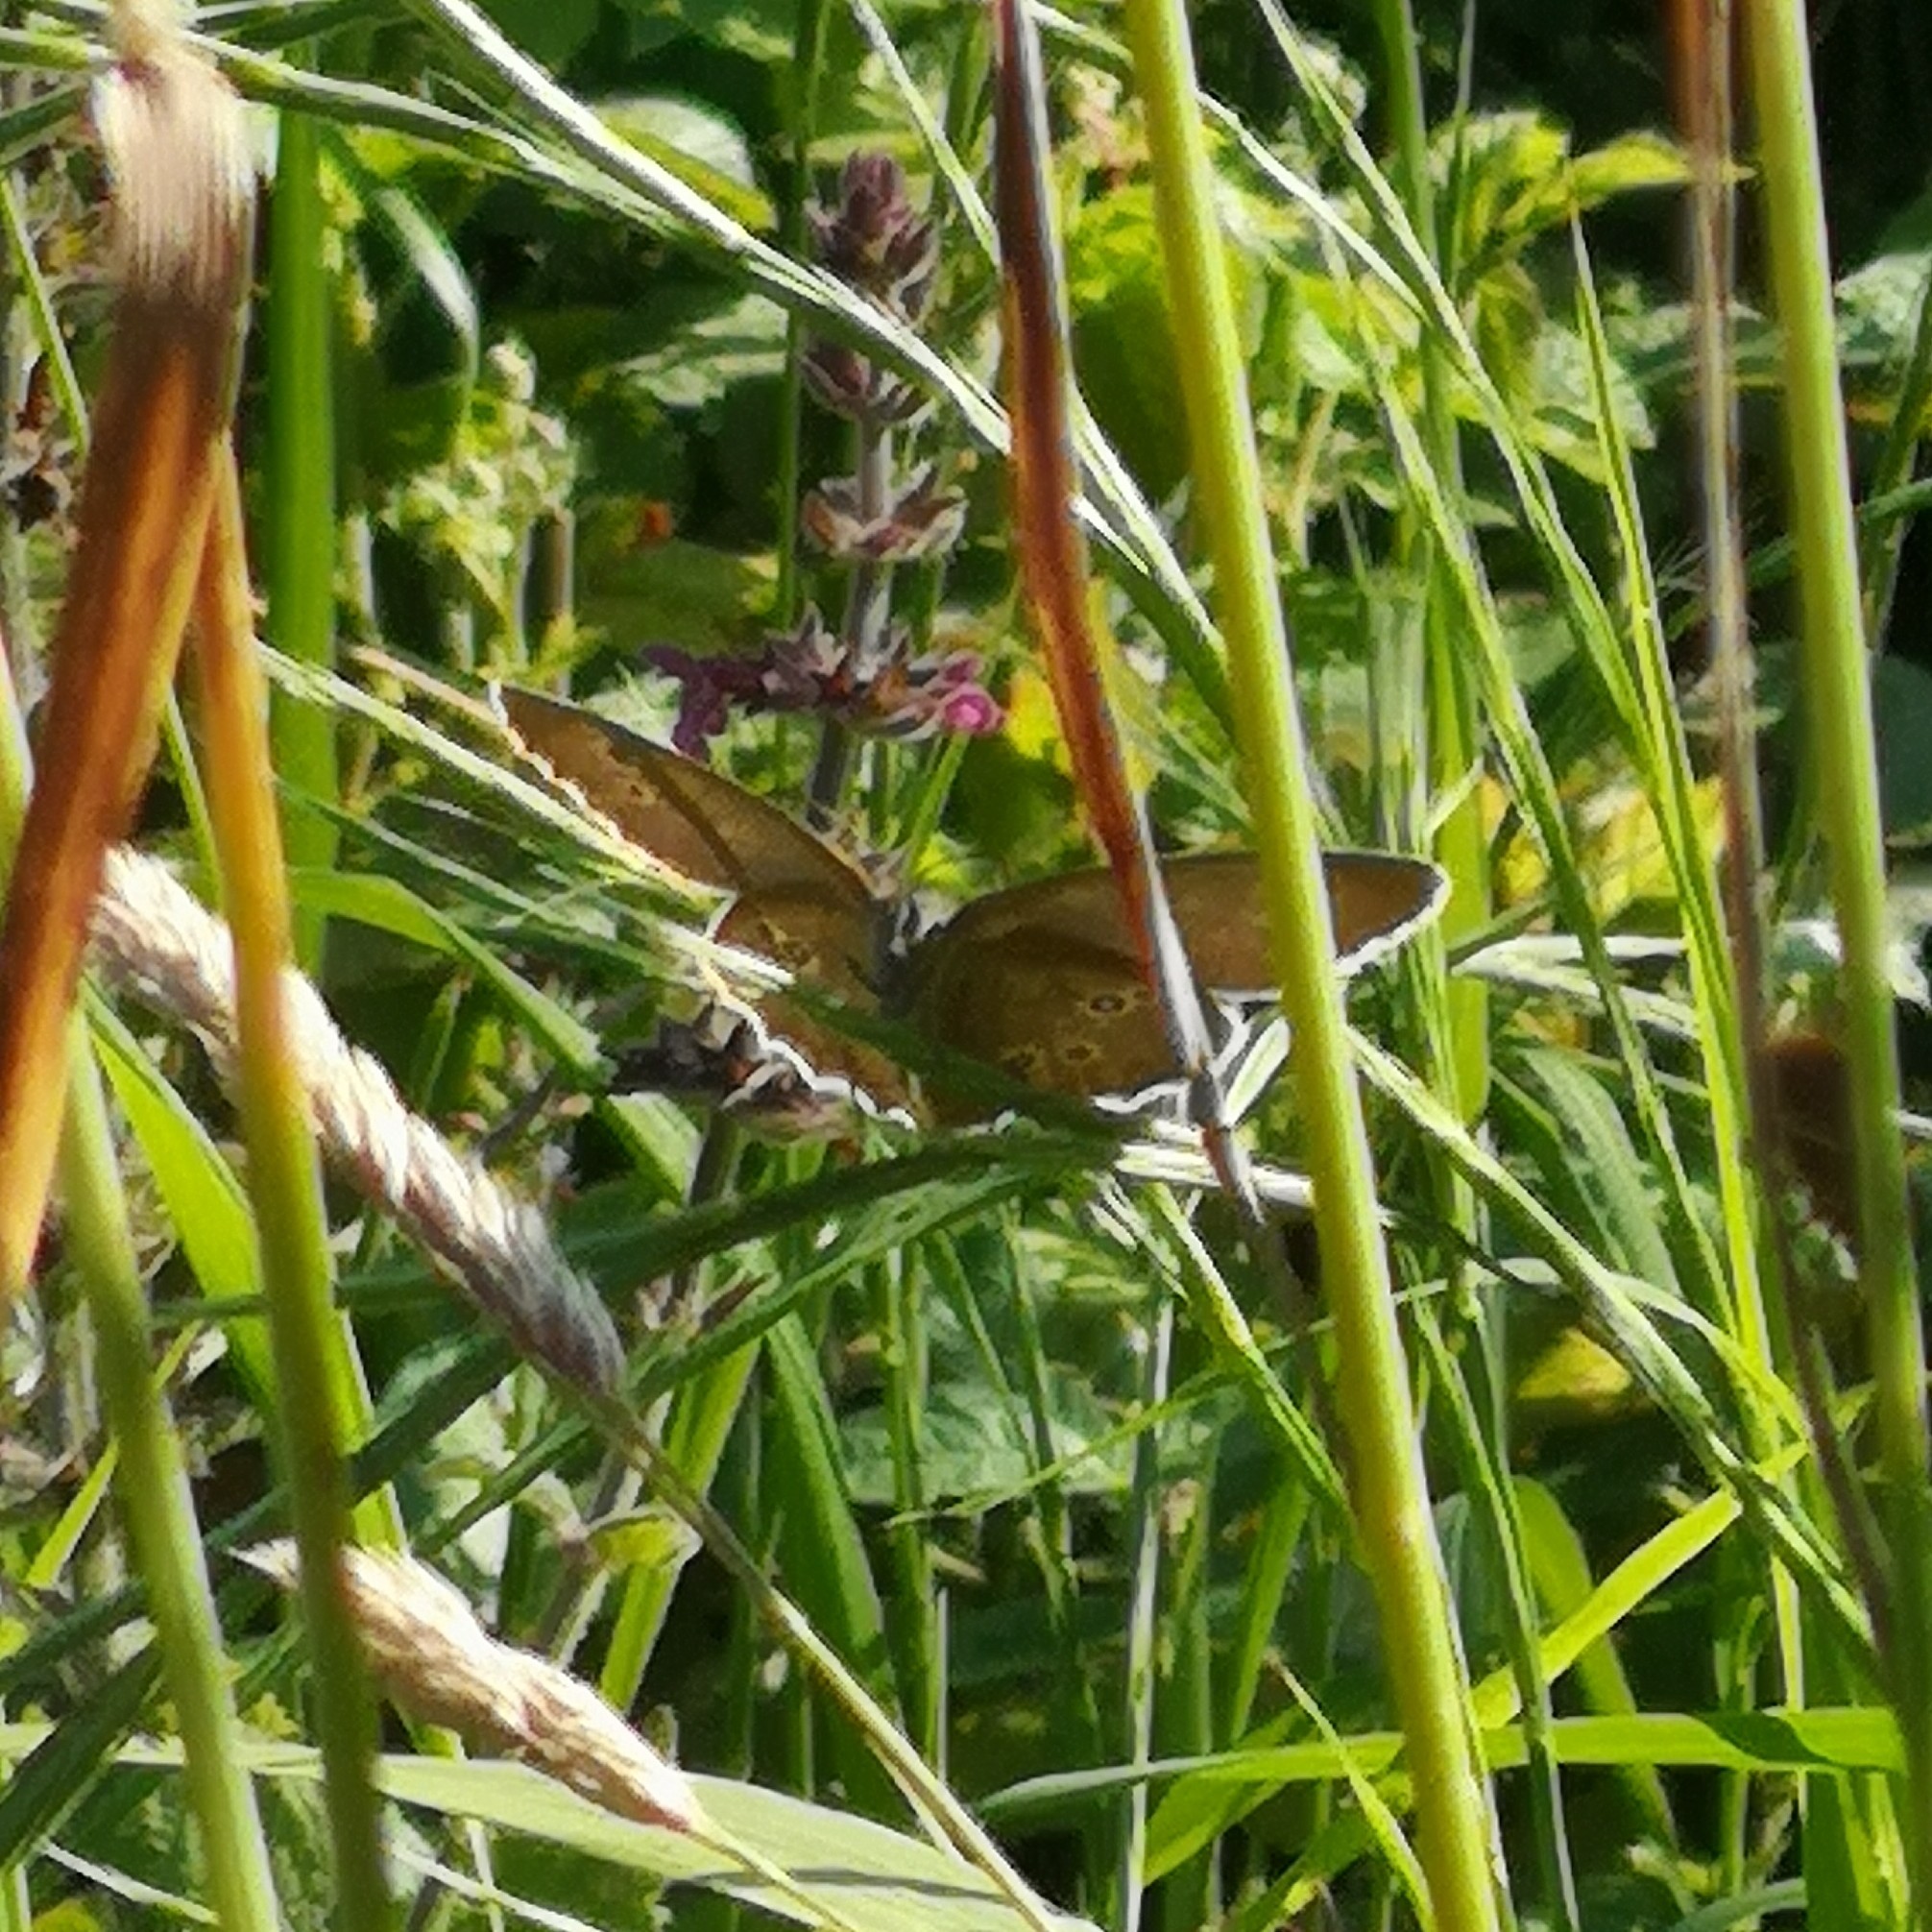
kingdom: Animalia
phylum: Arthropoda
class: Insecta
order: Lepidoptera
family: Nymphalidae
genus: Aphantopus
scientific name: Aphantopus hyperantus
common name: Ringlet
